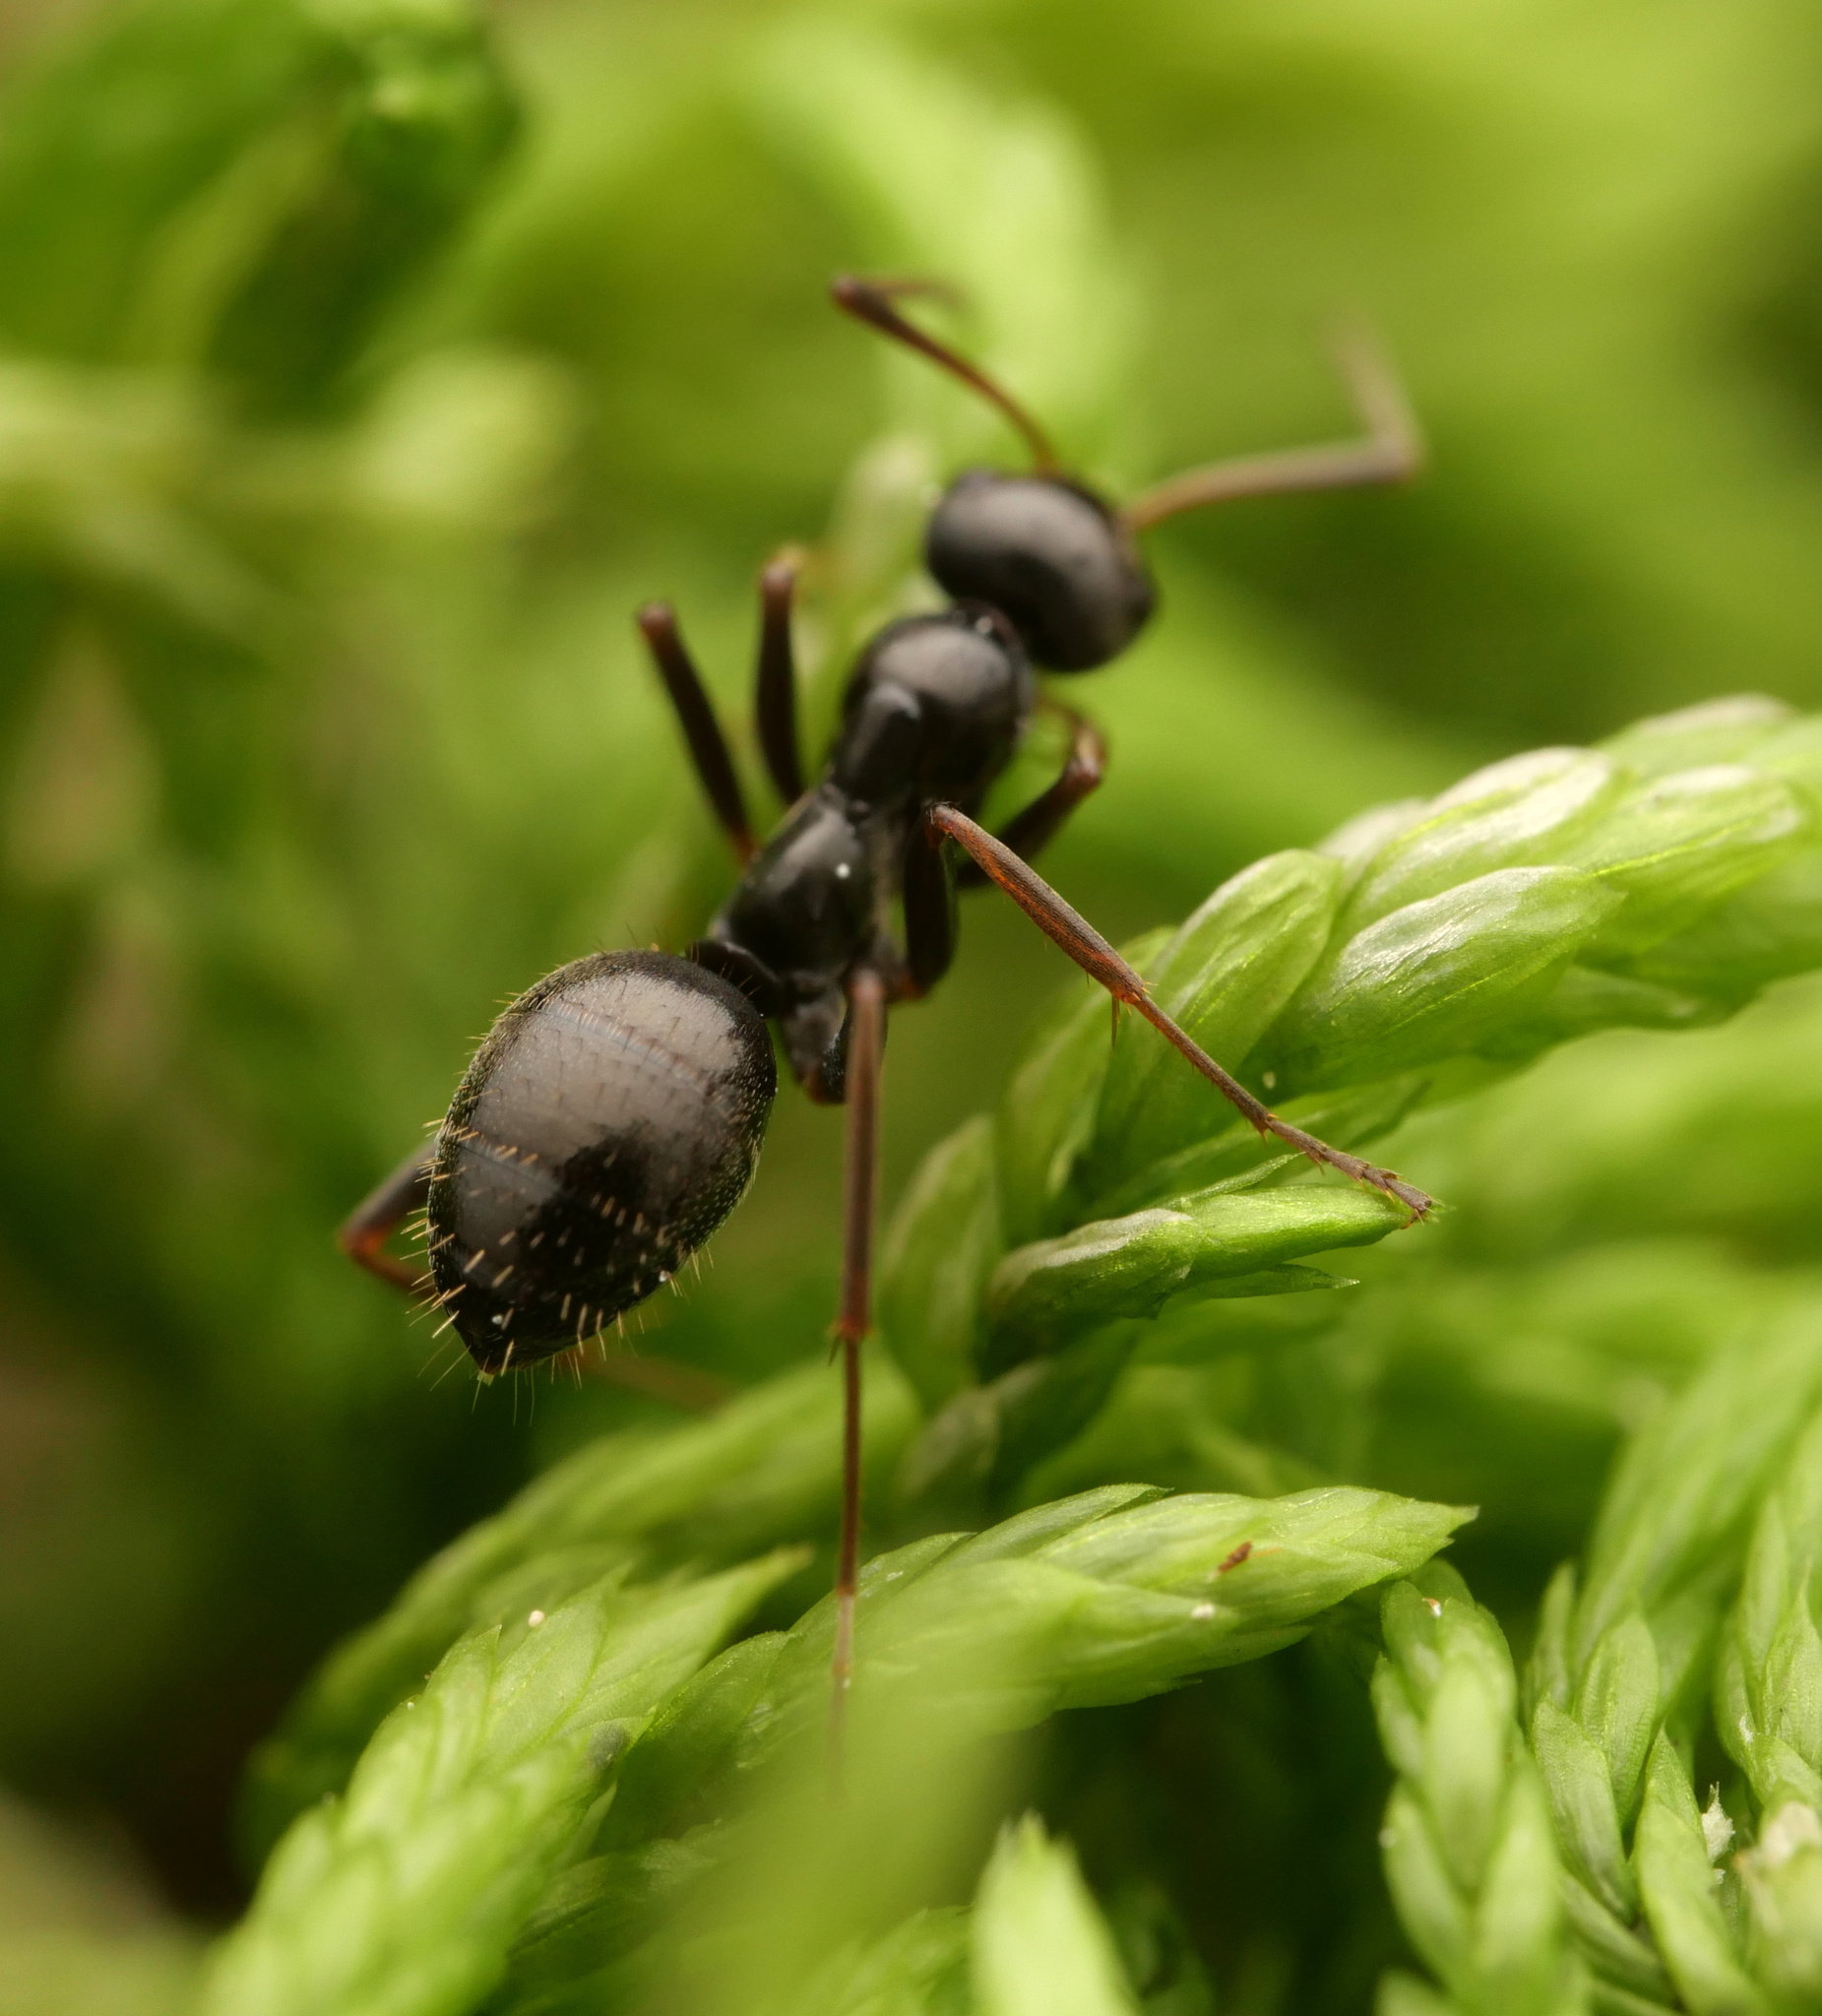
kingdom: Animalia
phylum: Arthropoda
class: Insecta
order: Hymenoptera
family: Formicidae
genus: Formica
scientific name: Formica gagates
